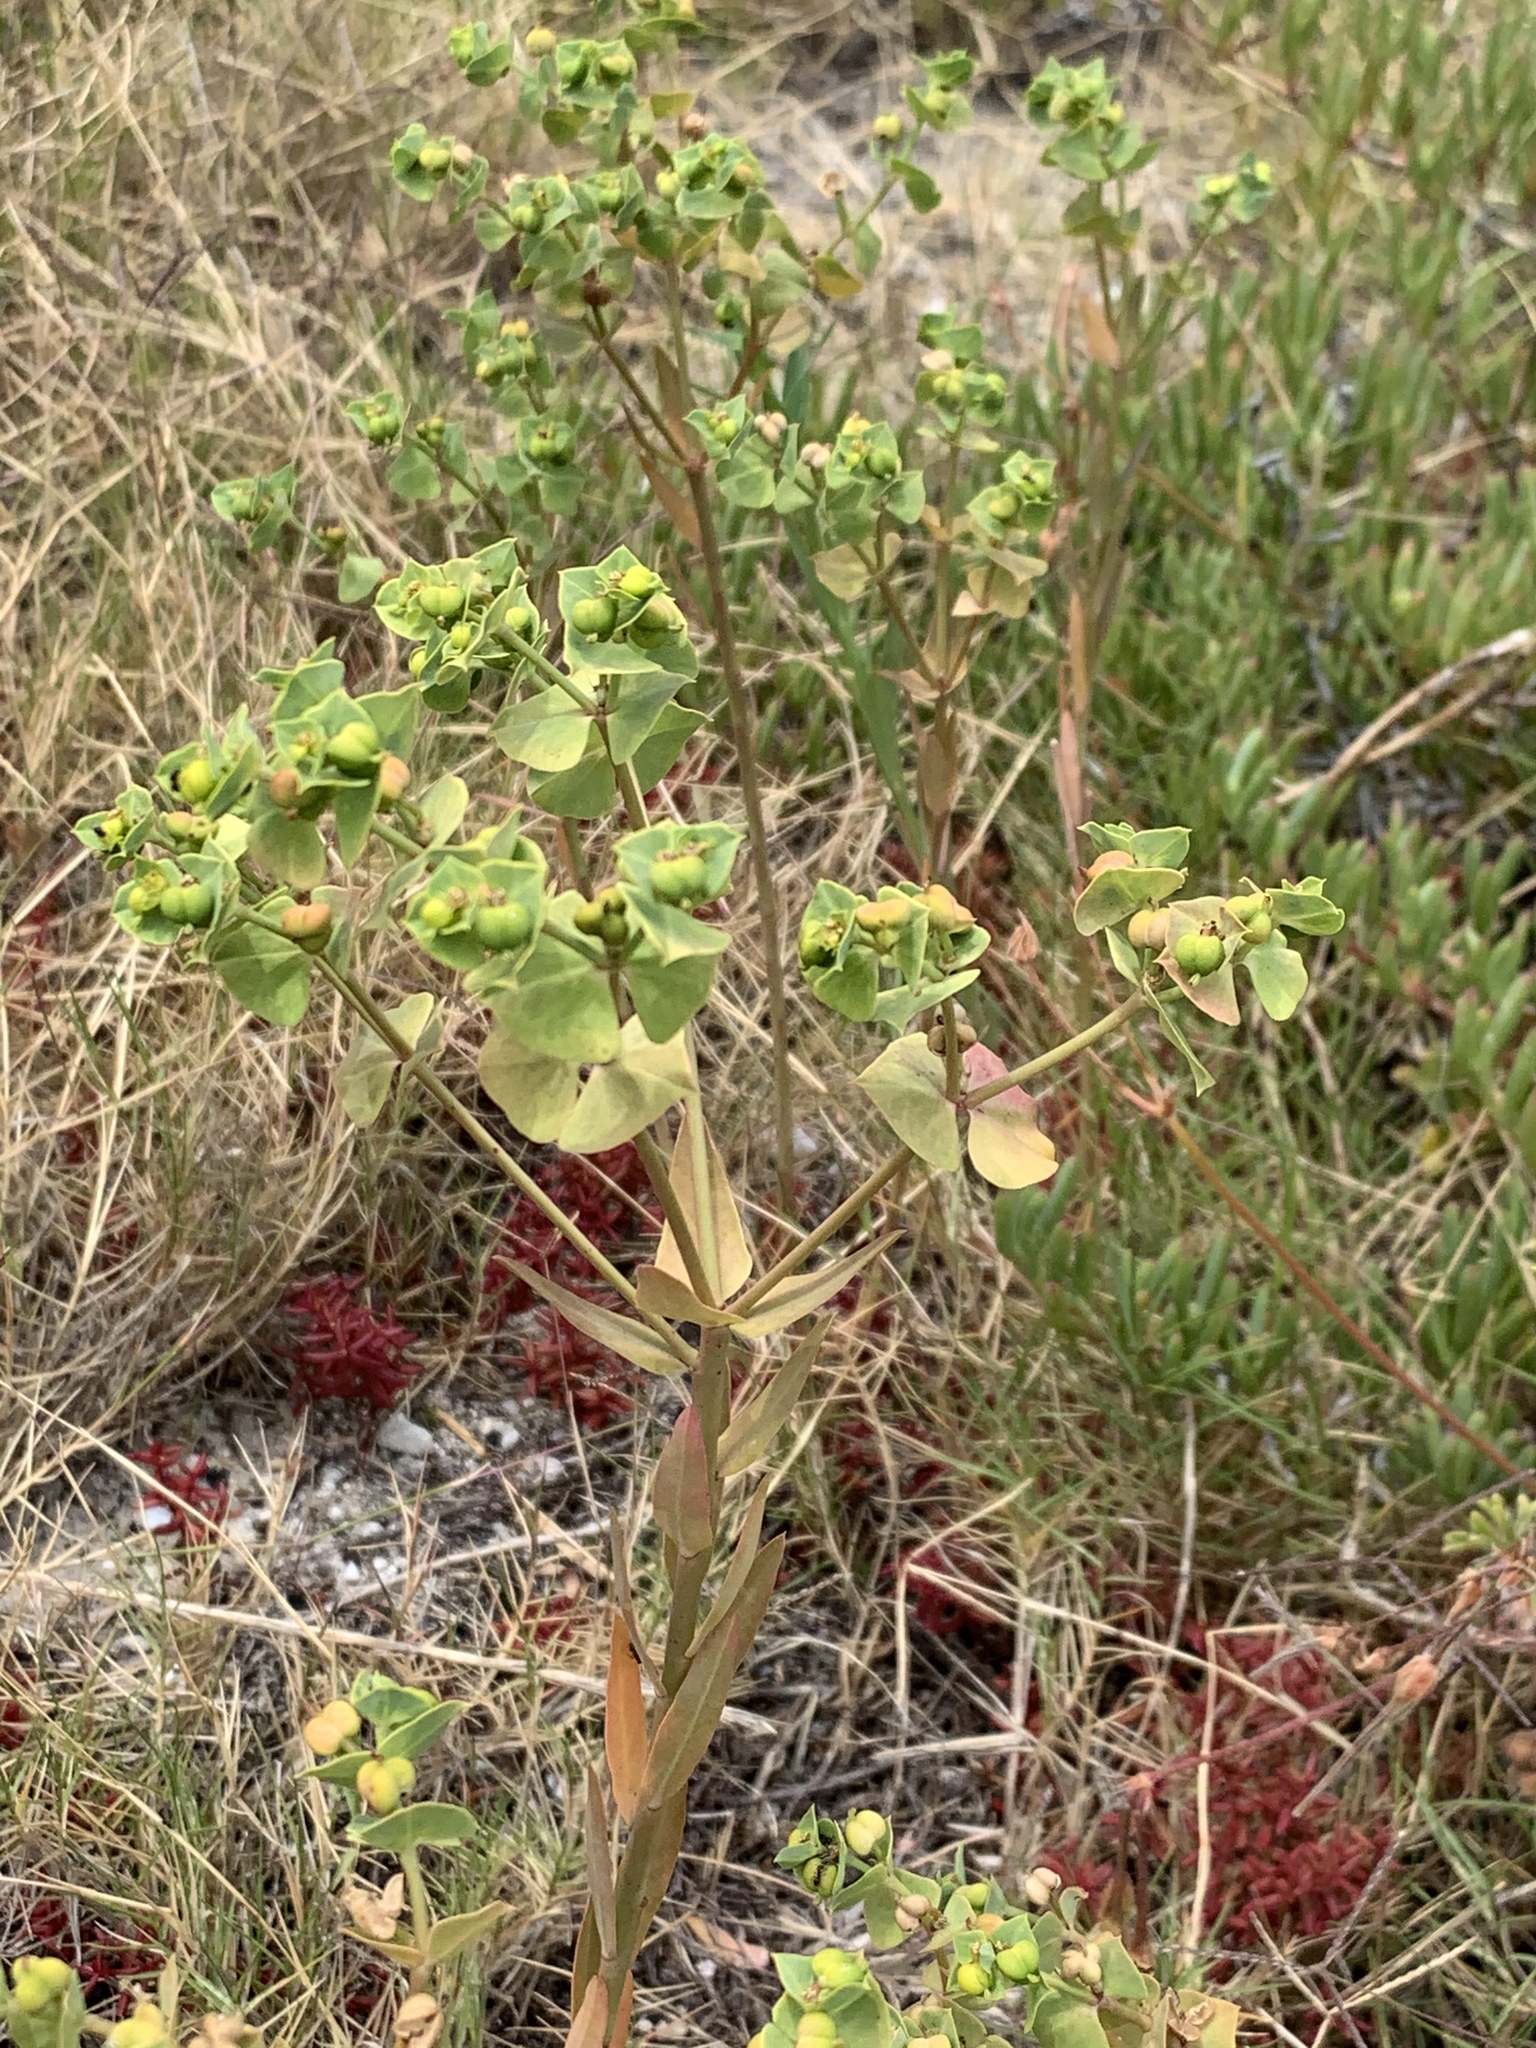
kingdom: Plantae
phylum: Tracheophyta
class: Magnoliopsida
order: Malpighiales
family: Euphorbiaceae
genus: Euphorbia
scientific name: Euphorbia terracina
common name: Geraldton carnation weed
